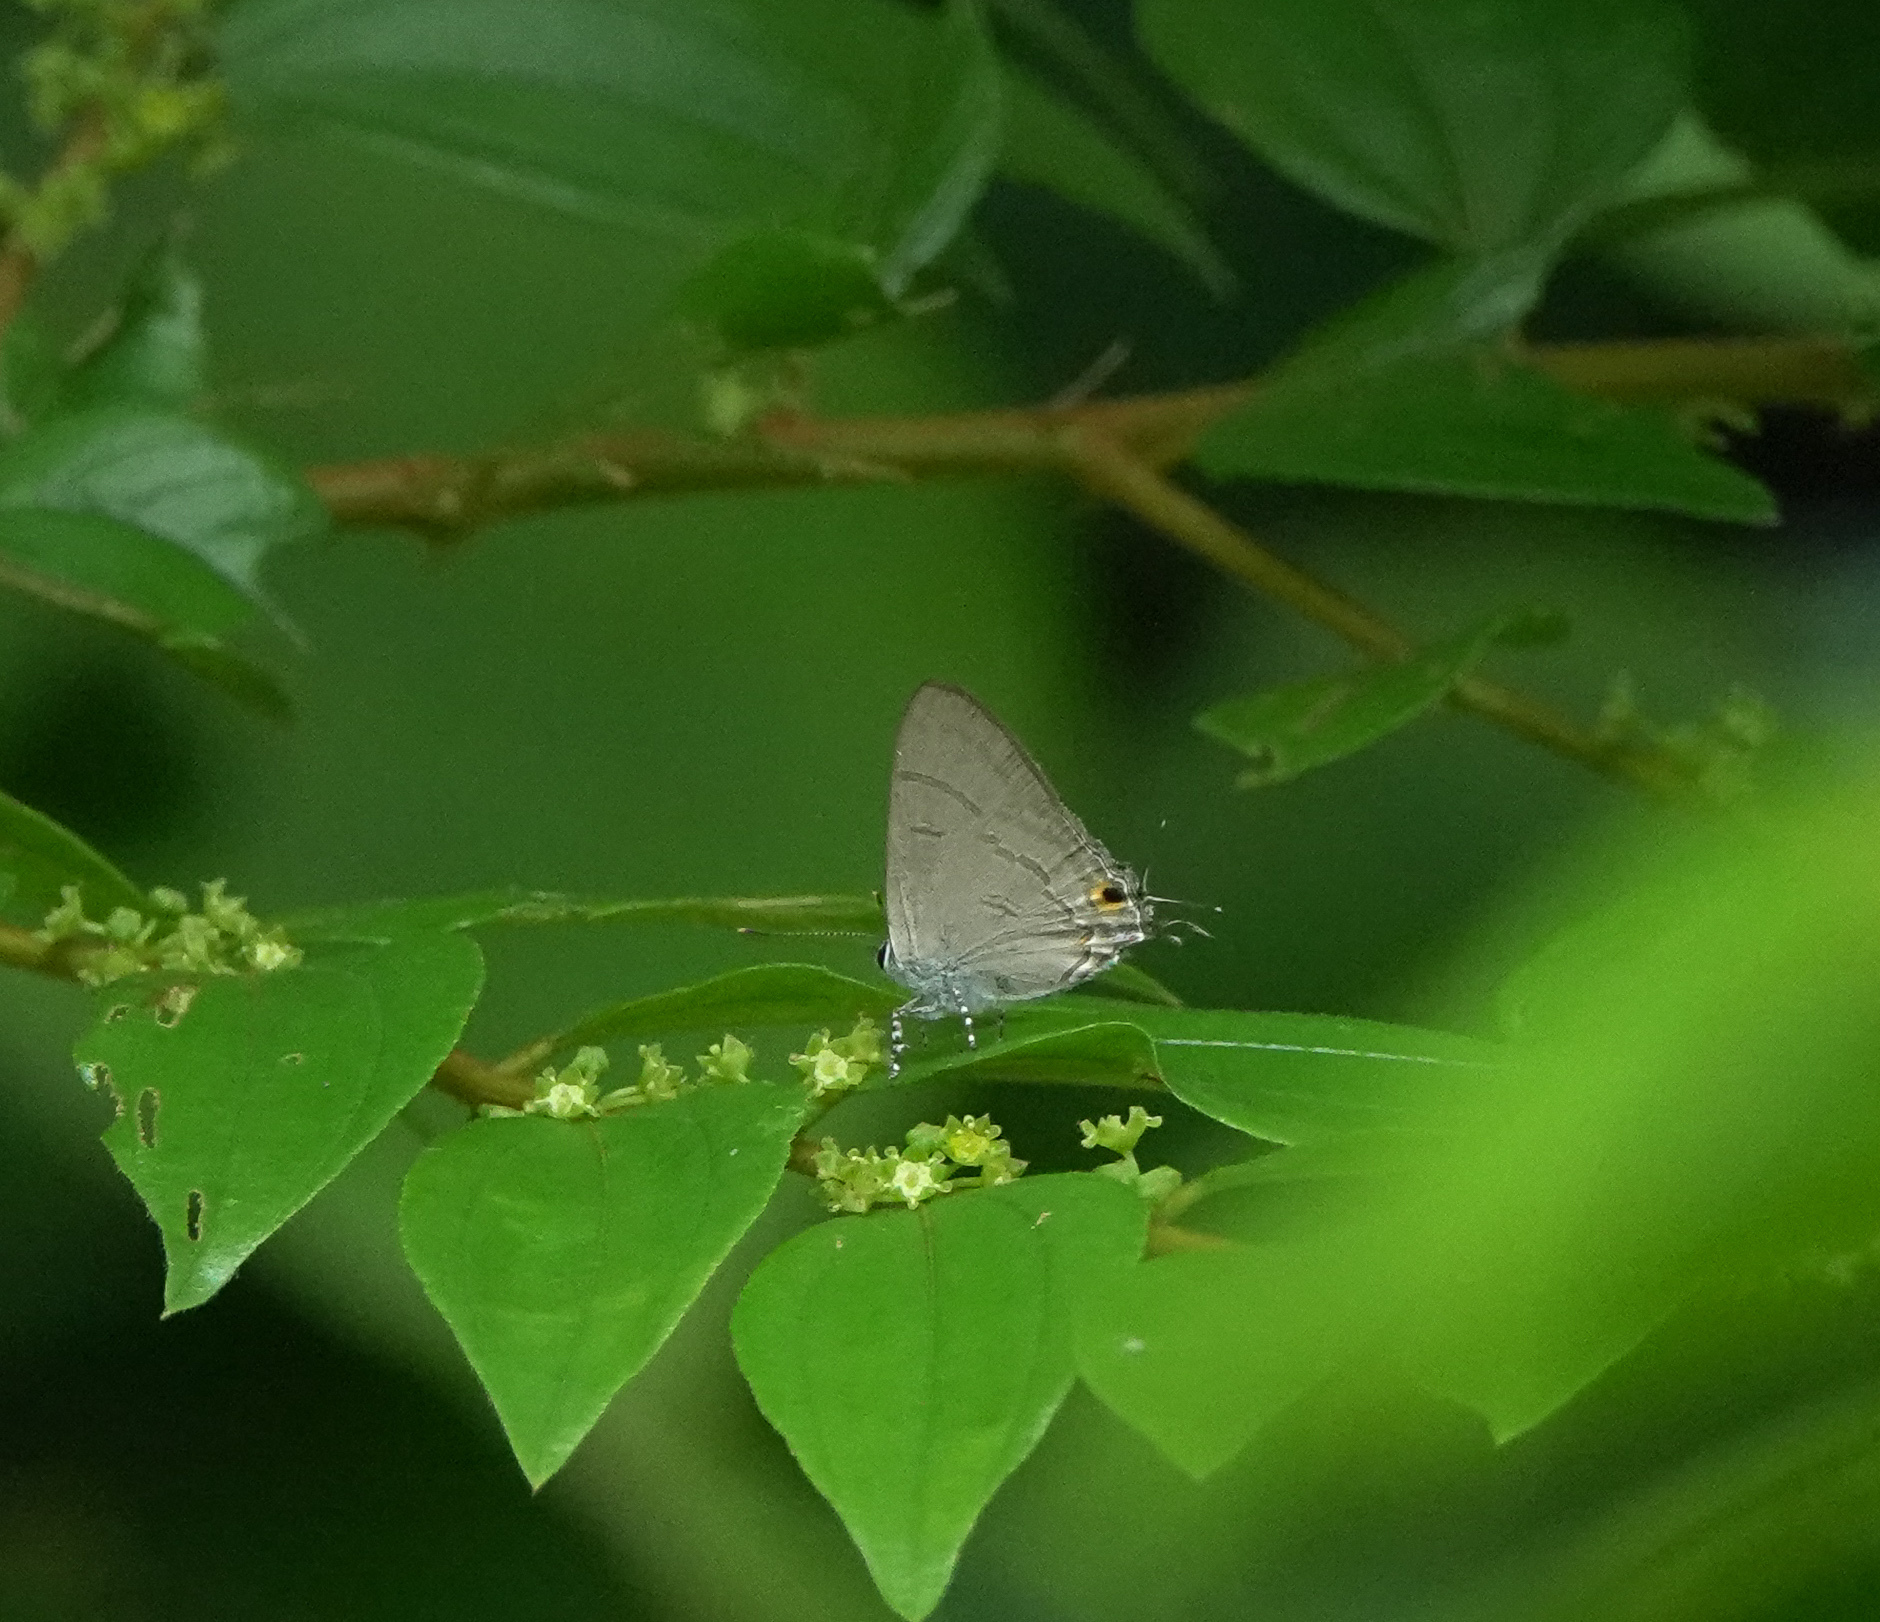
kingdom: Animalia
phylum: Arthropoda
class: Insecta
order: Lepidoptera
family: Lycaenidae
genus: Hypolycaena
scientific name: Hypolycaena erylus
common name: Common tit
